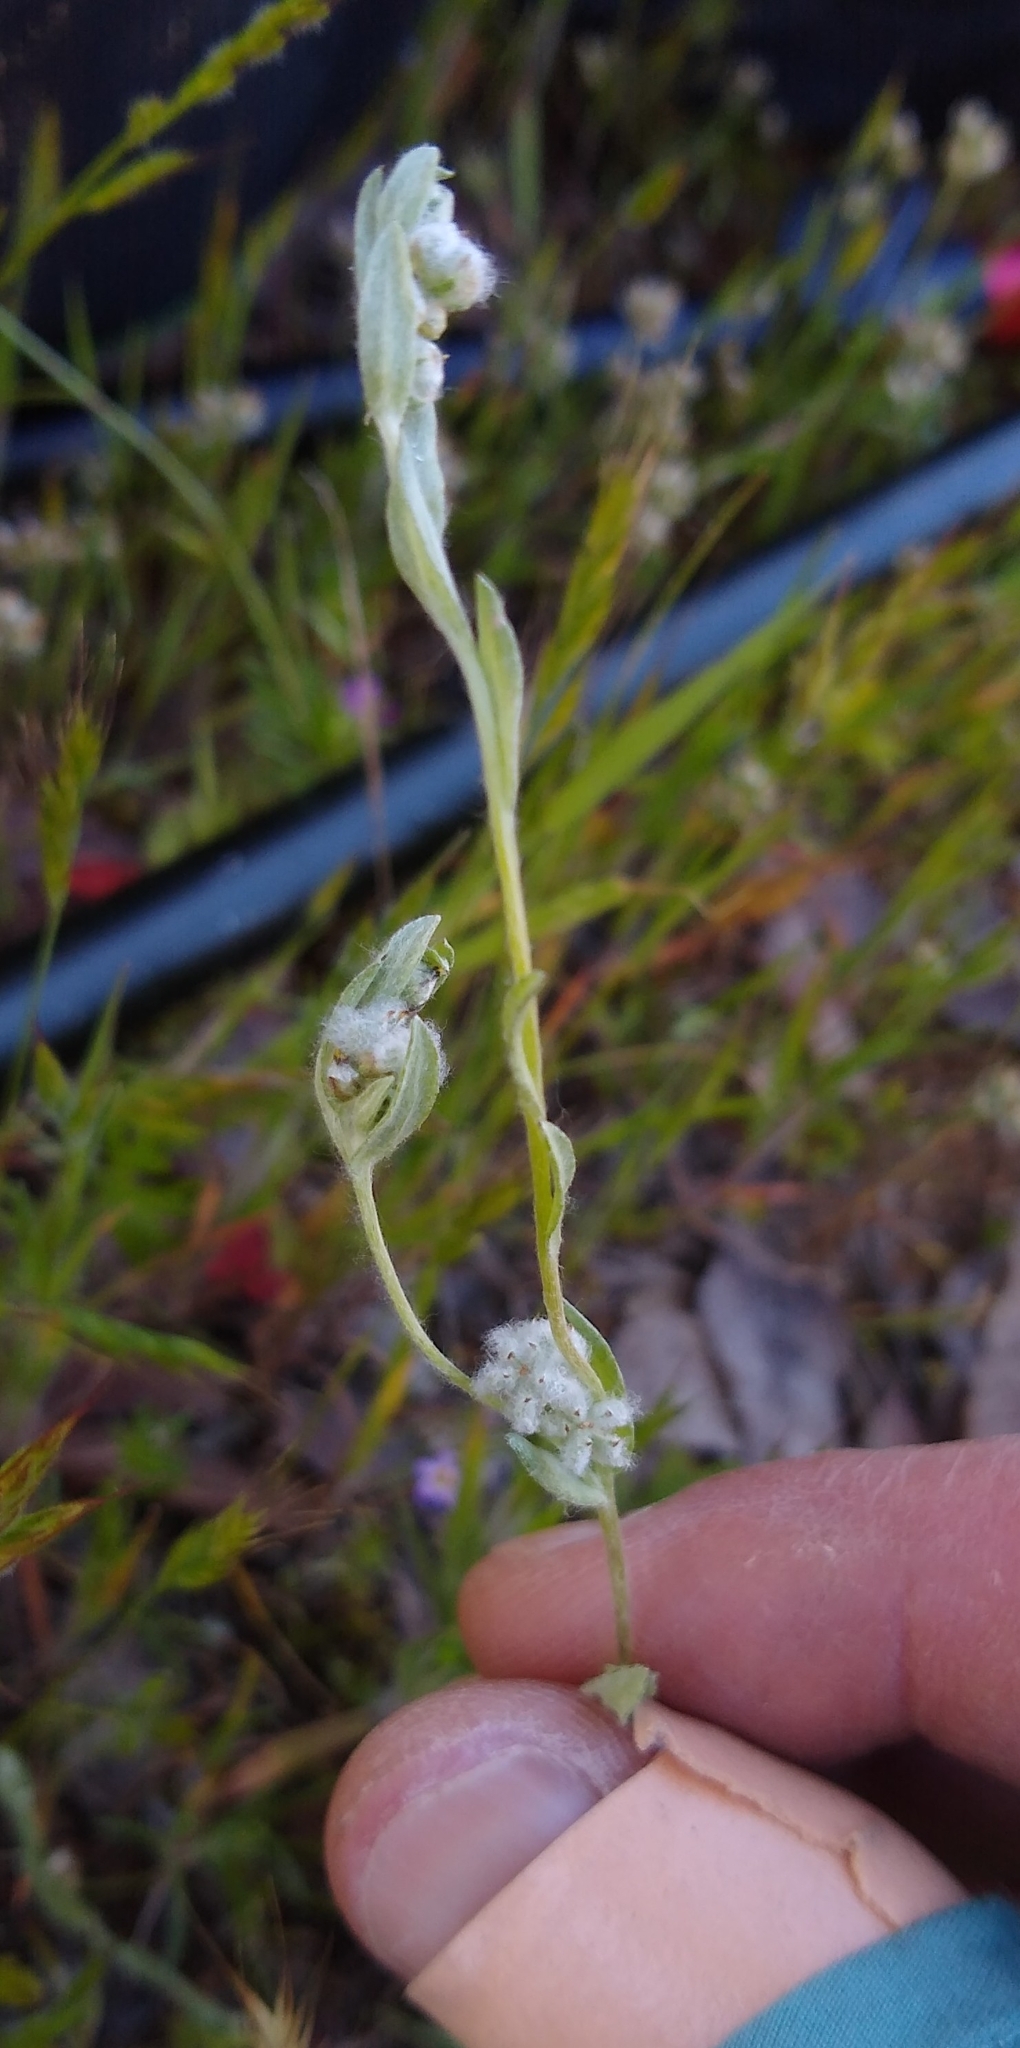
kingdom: Plantae
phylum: Tracheophyta
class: Magnoliopsida
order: Asterales
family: Asteraceae
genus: Bombycilaena
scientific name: Bombycilaena californica
